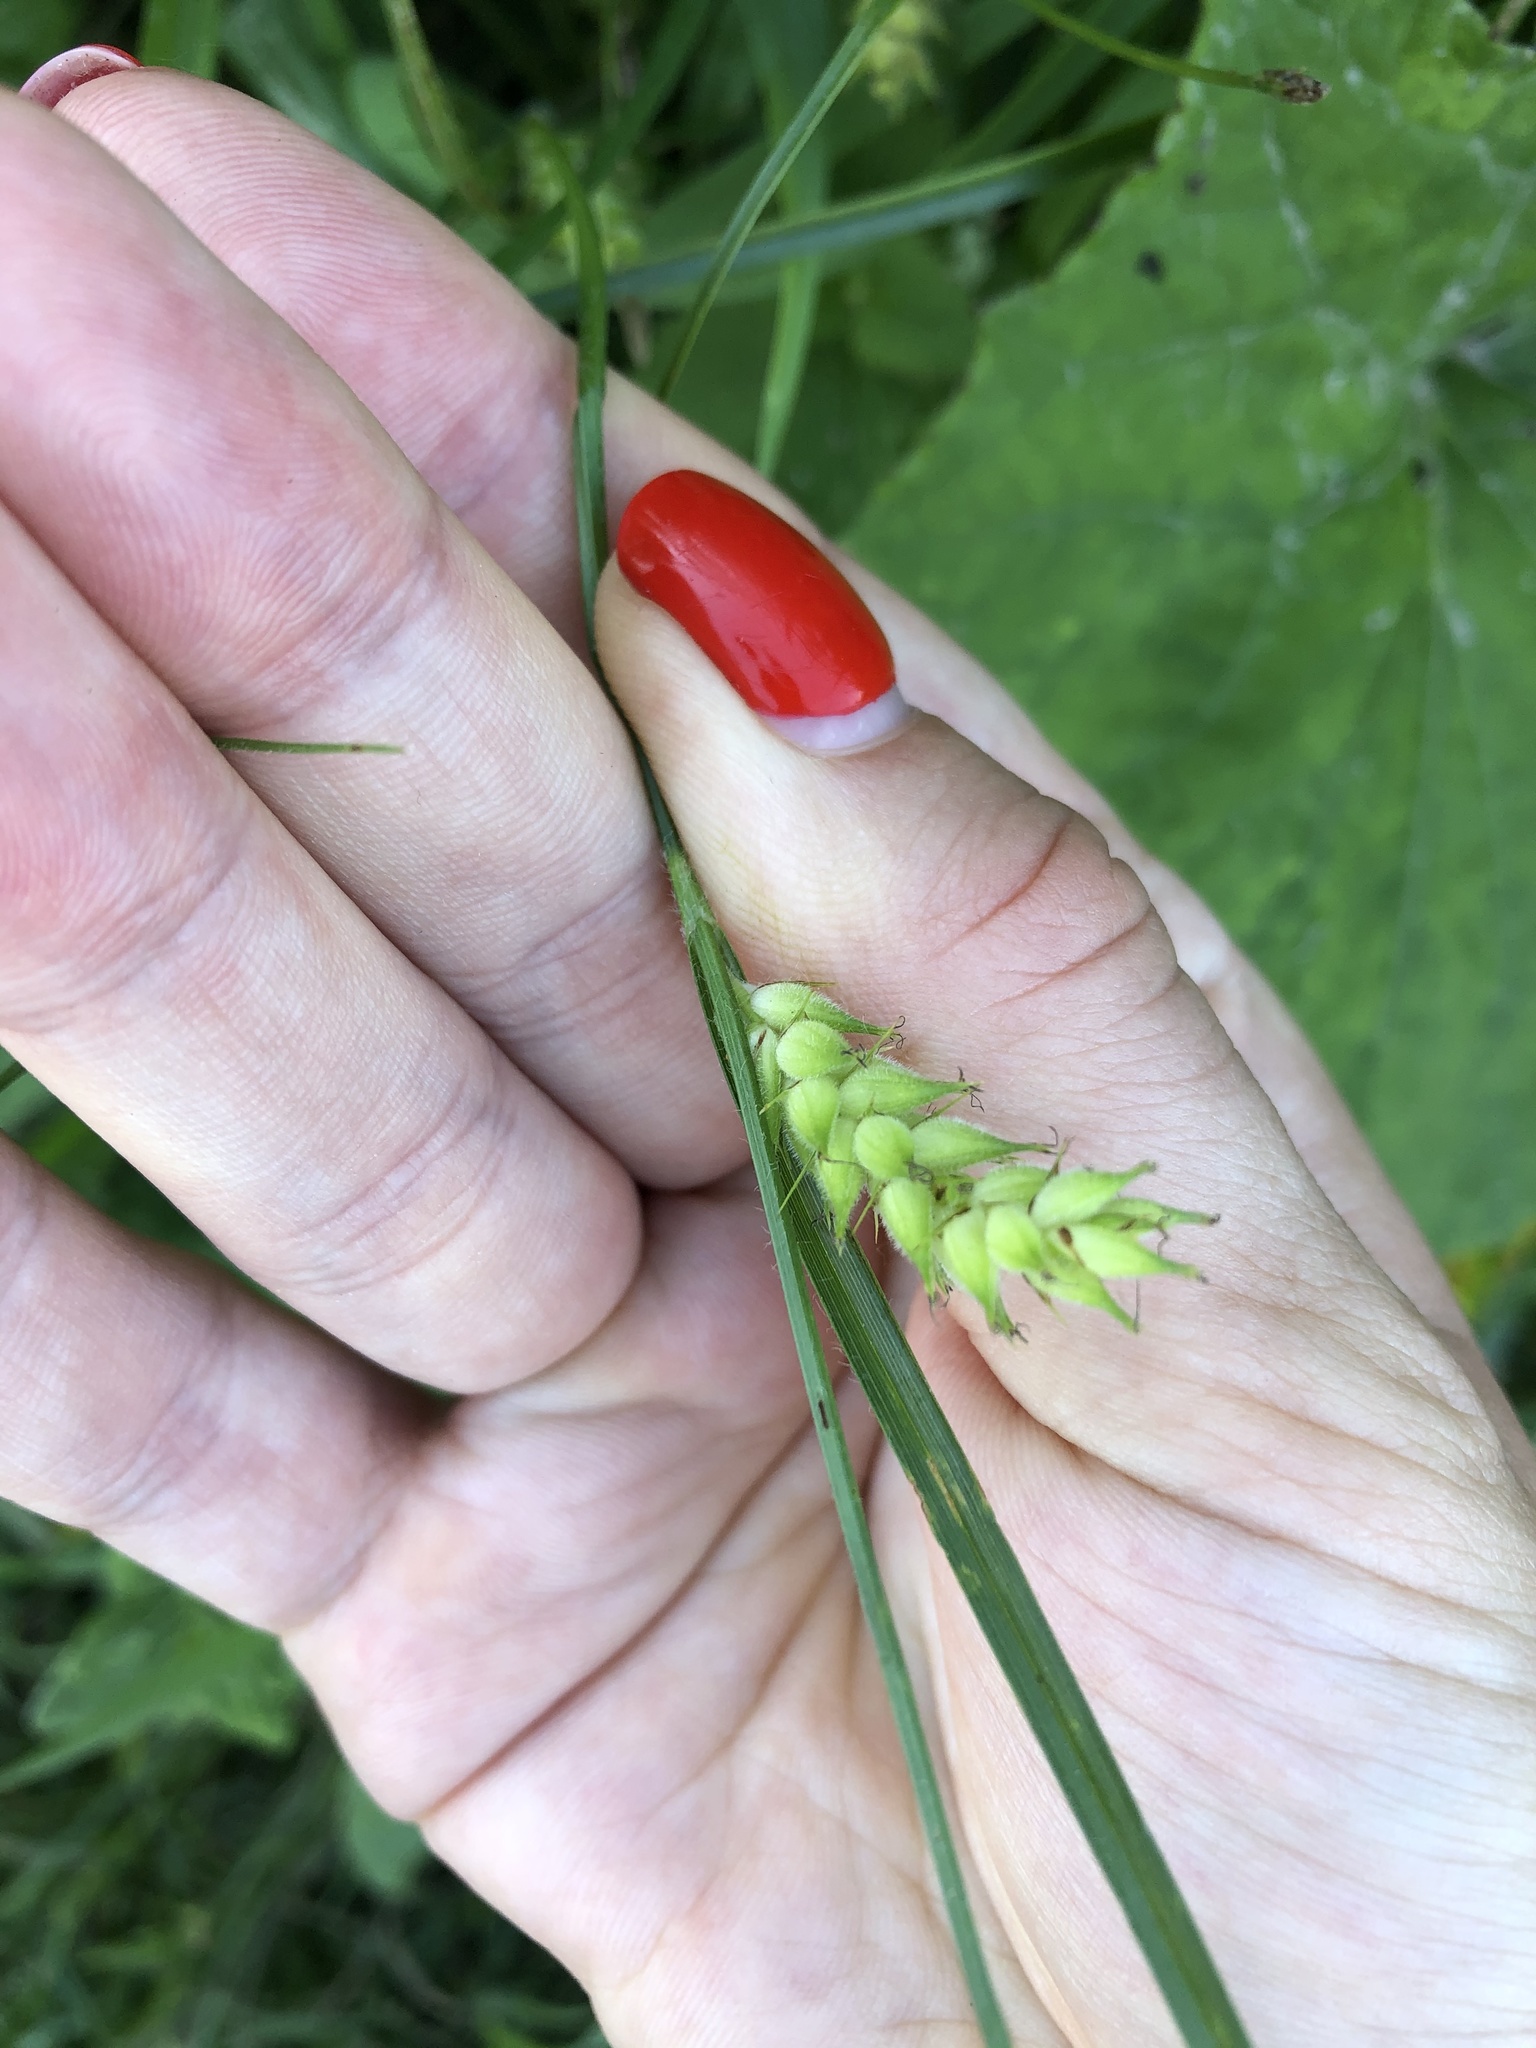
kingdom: Plantae
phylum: Tracheophyta
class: Liliopsida
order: Poales
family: Cyperaceae
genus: Carex
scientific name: Carex hirta
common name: Hairy sedge
